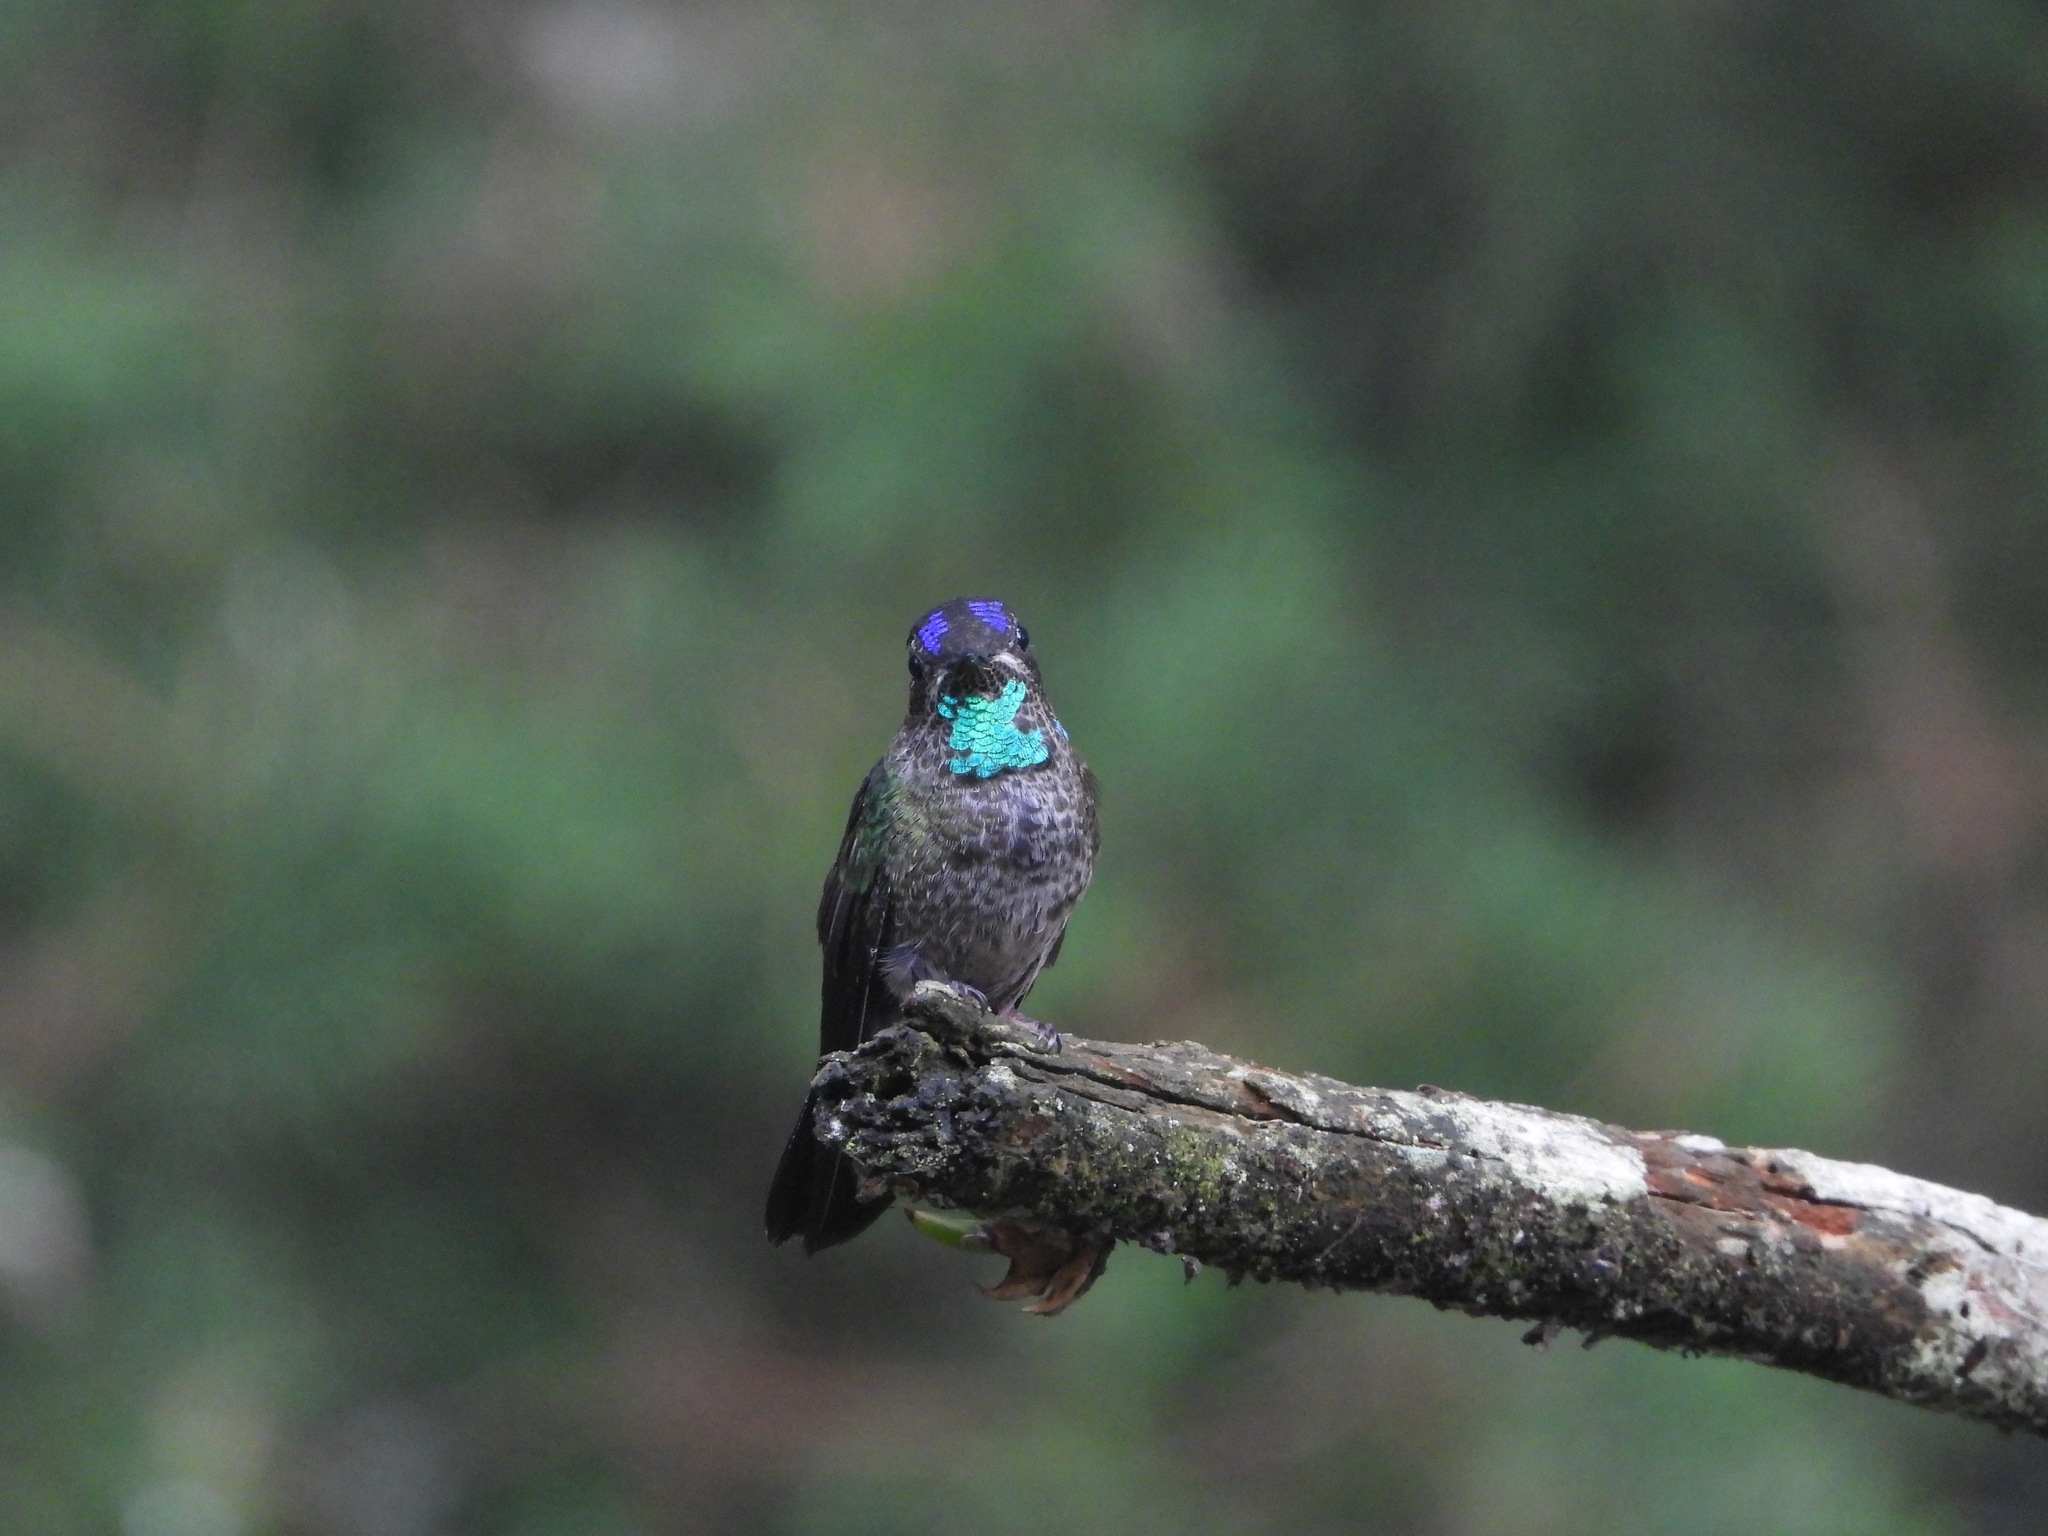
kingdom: Animalia
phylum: Chordata
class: Aves
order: Apodiformes
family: Trochilidae
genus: Eugenes
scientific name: Eugenes fulgens
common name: Magnificent hummingbird
